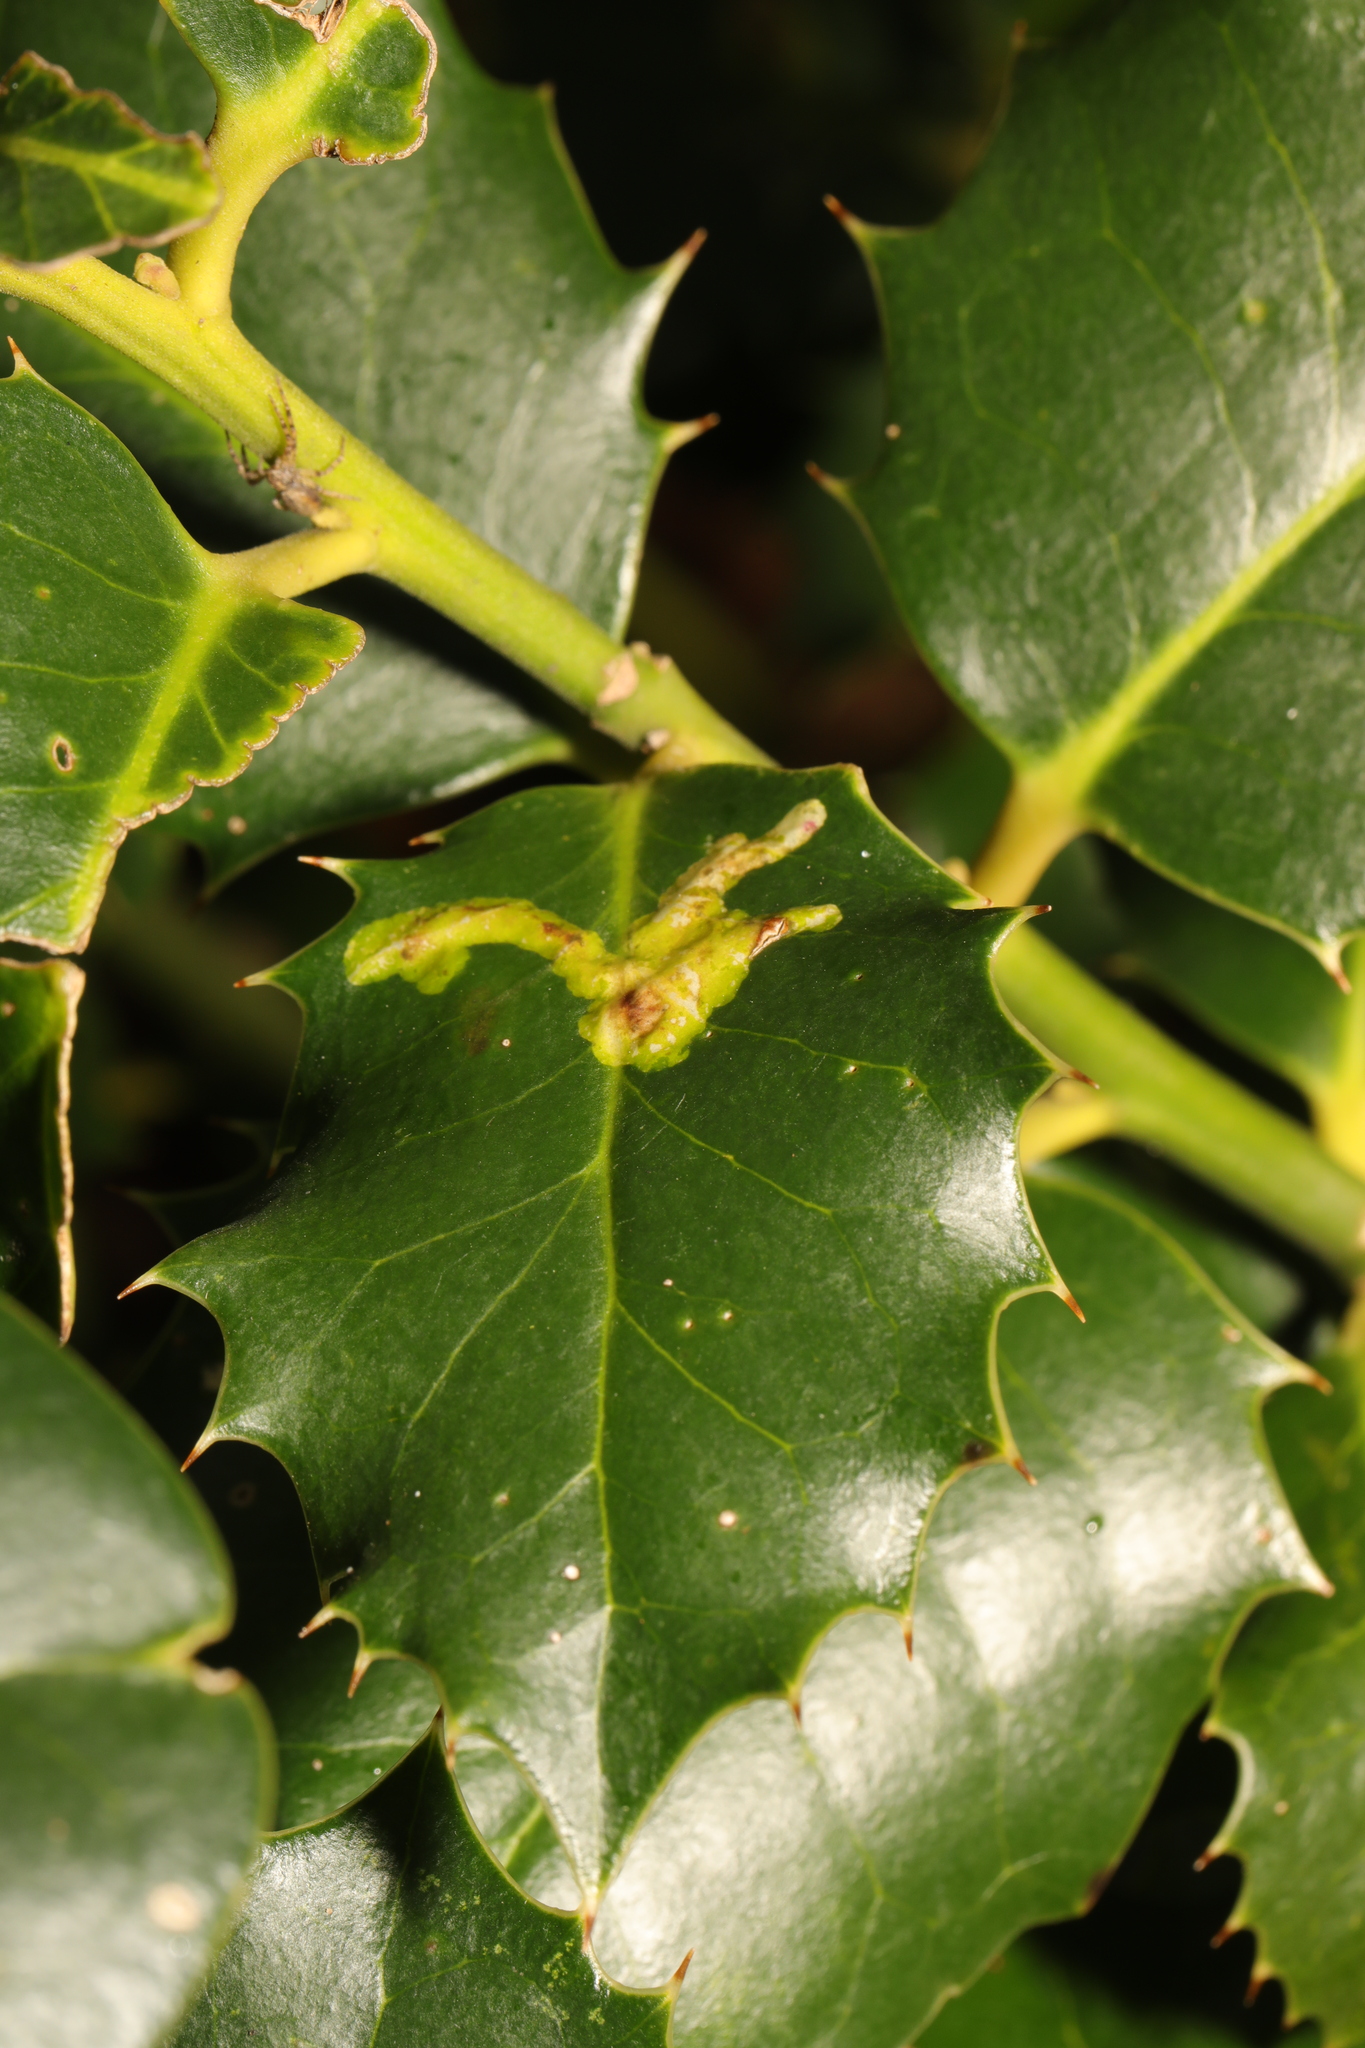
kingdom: Animalia
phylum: Arthropoda
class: Insecta
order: Diptera
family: Agromyzidae
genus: Phytomyza
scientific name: Phytomyza ilicis
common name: Holly leafminer
